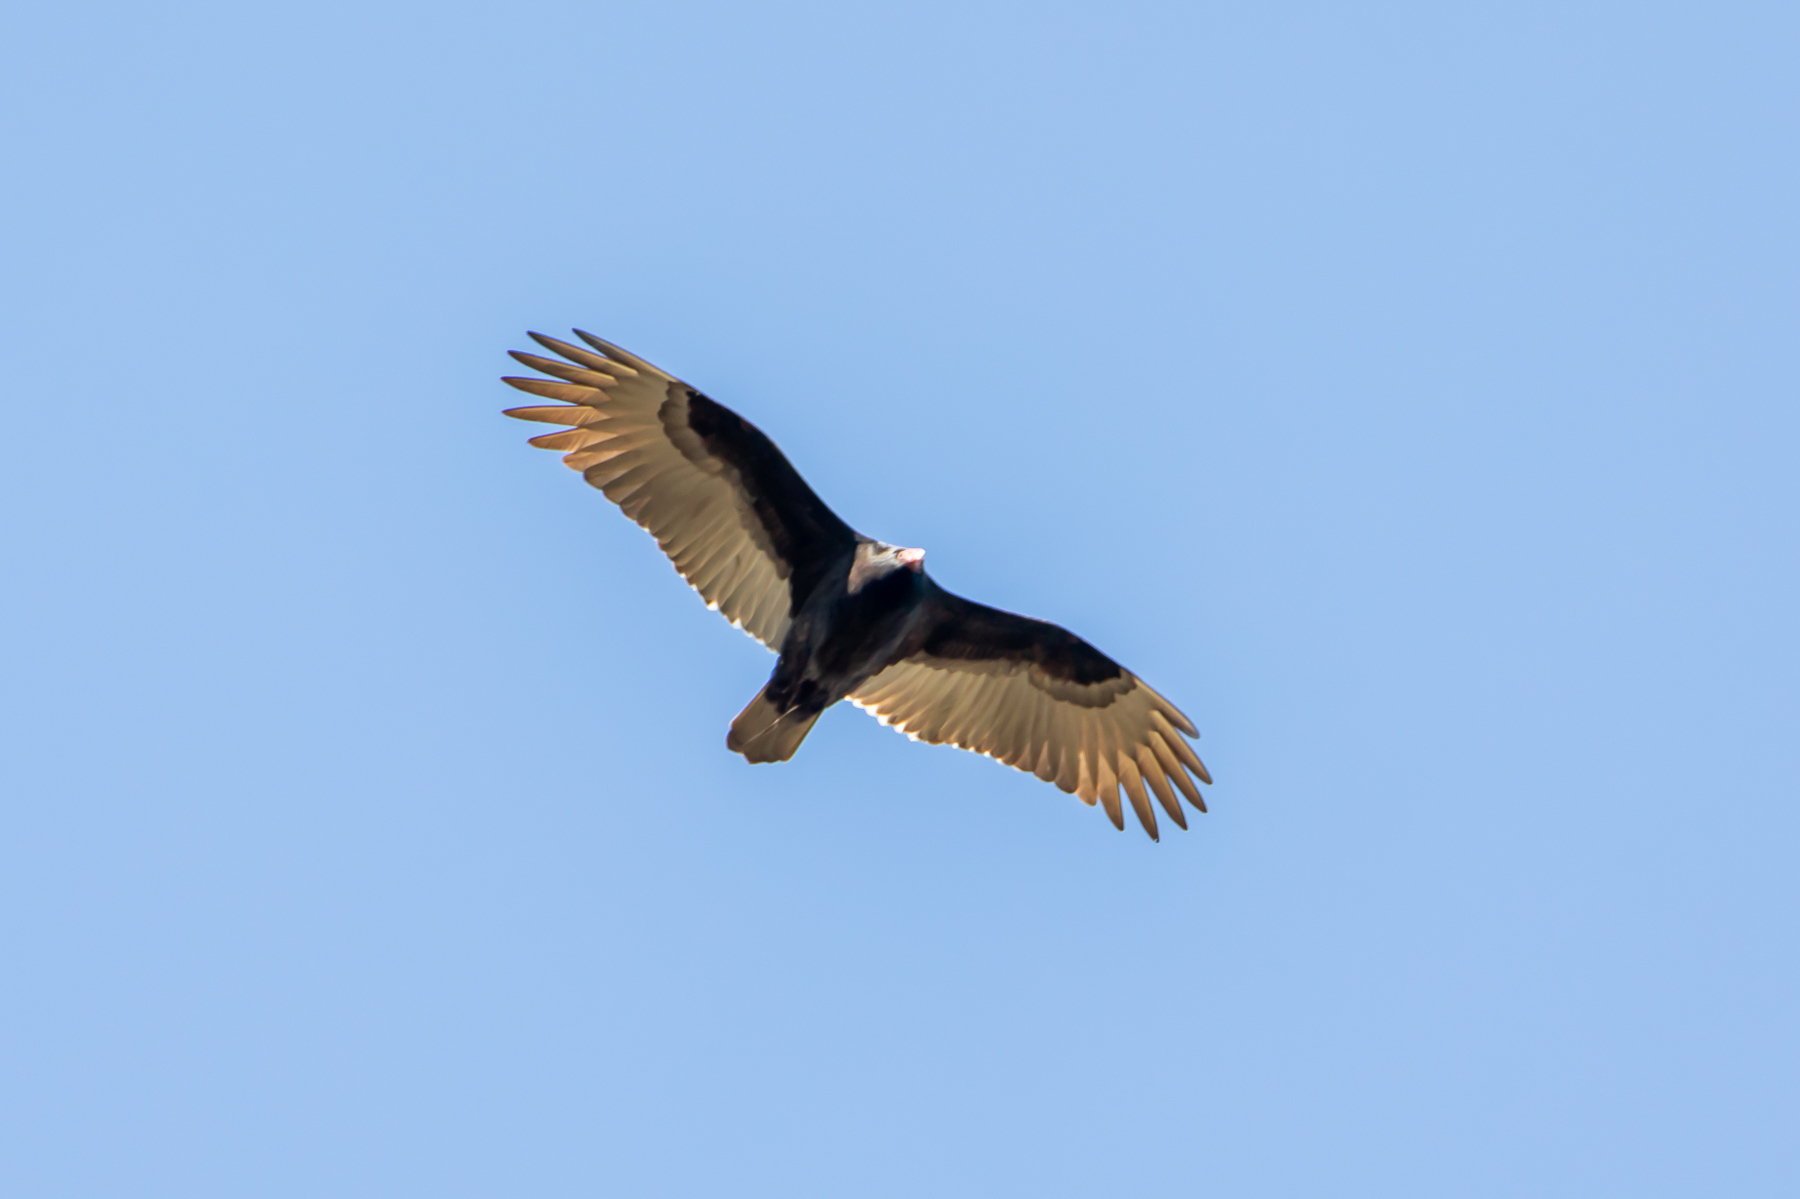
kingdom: Animalia
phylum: Chordata
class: Aves
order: Accipitriformes
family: Cathartidae
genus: Cathartes
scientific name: Cathartes aura
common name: Turkey vulture
